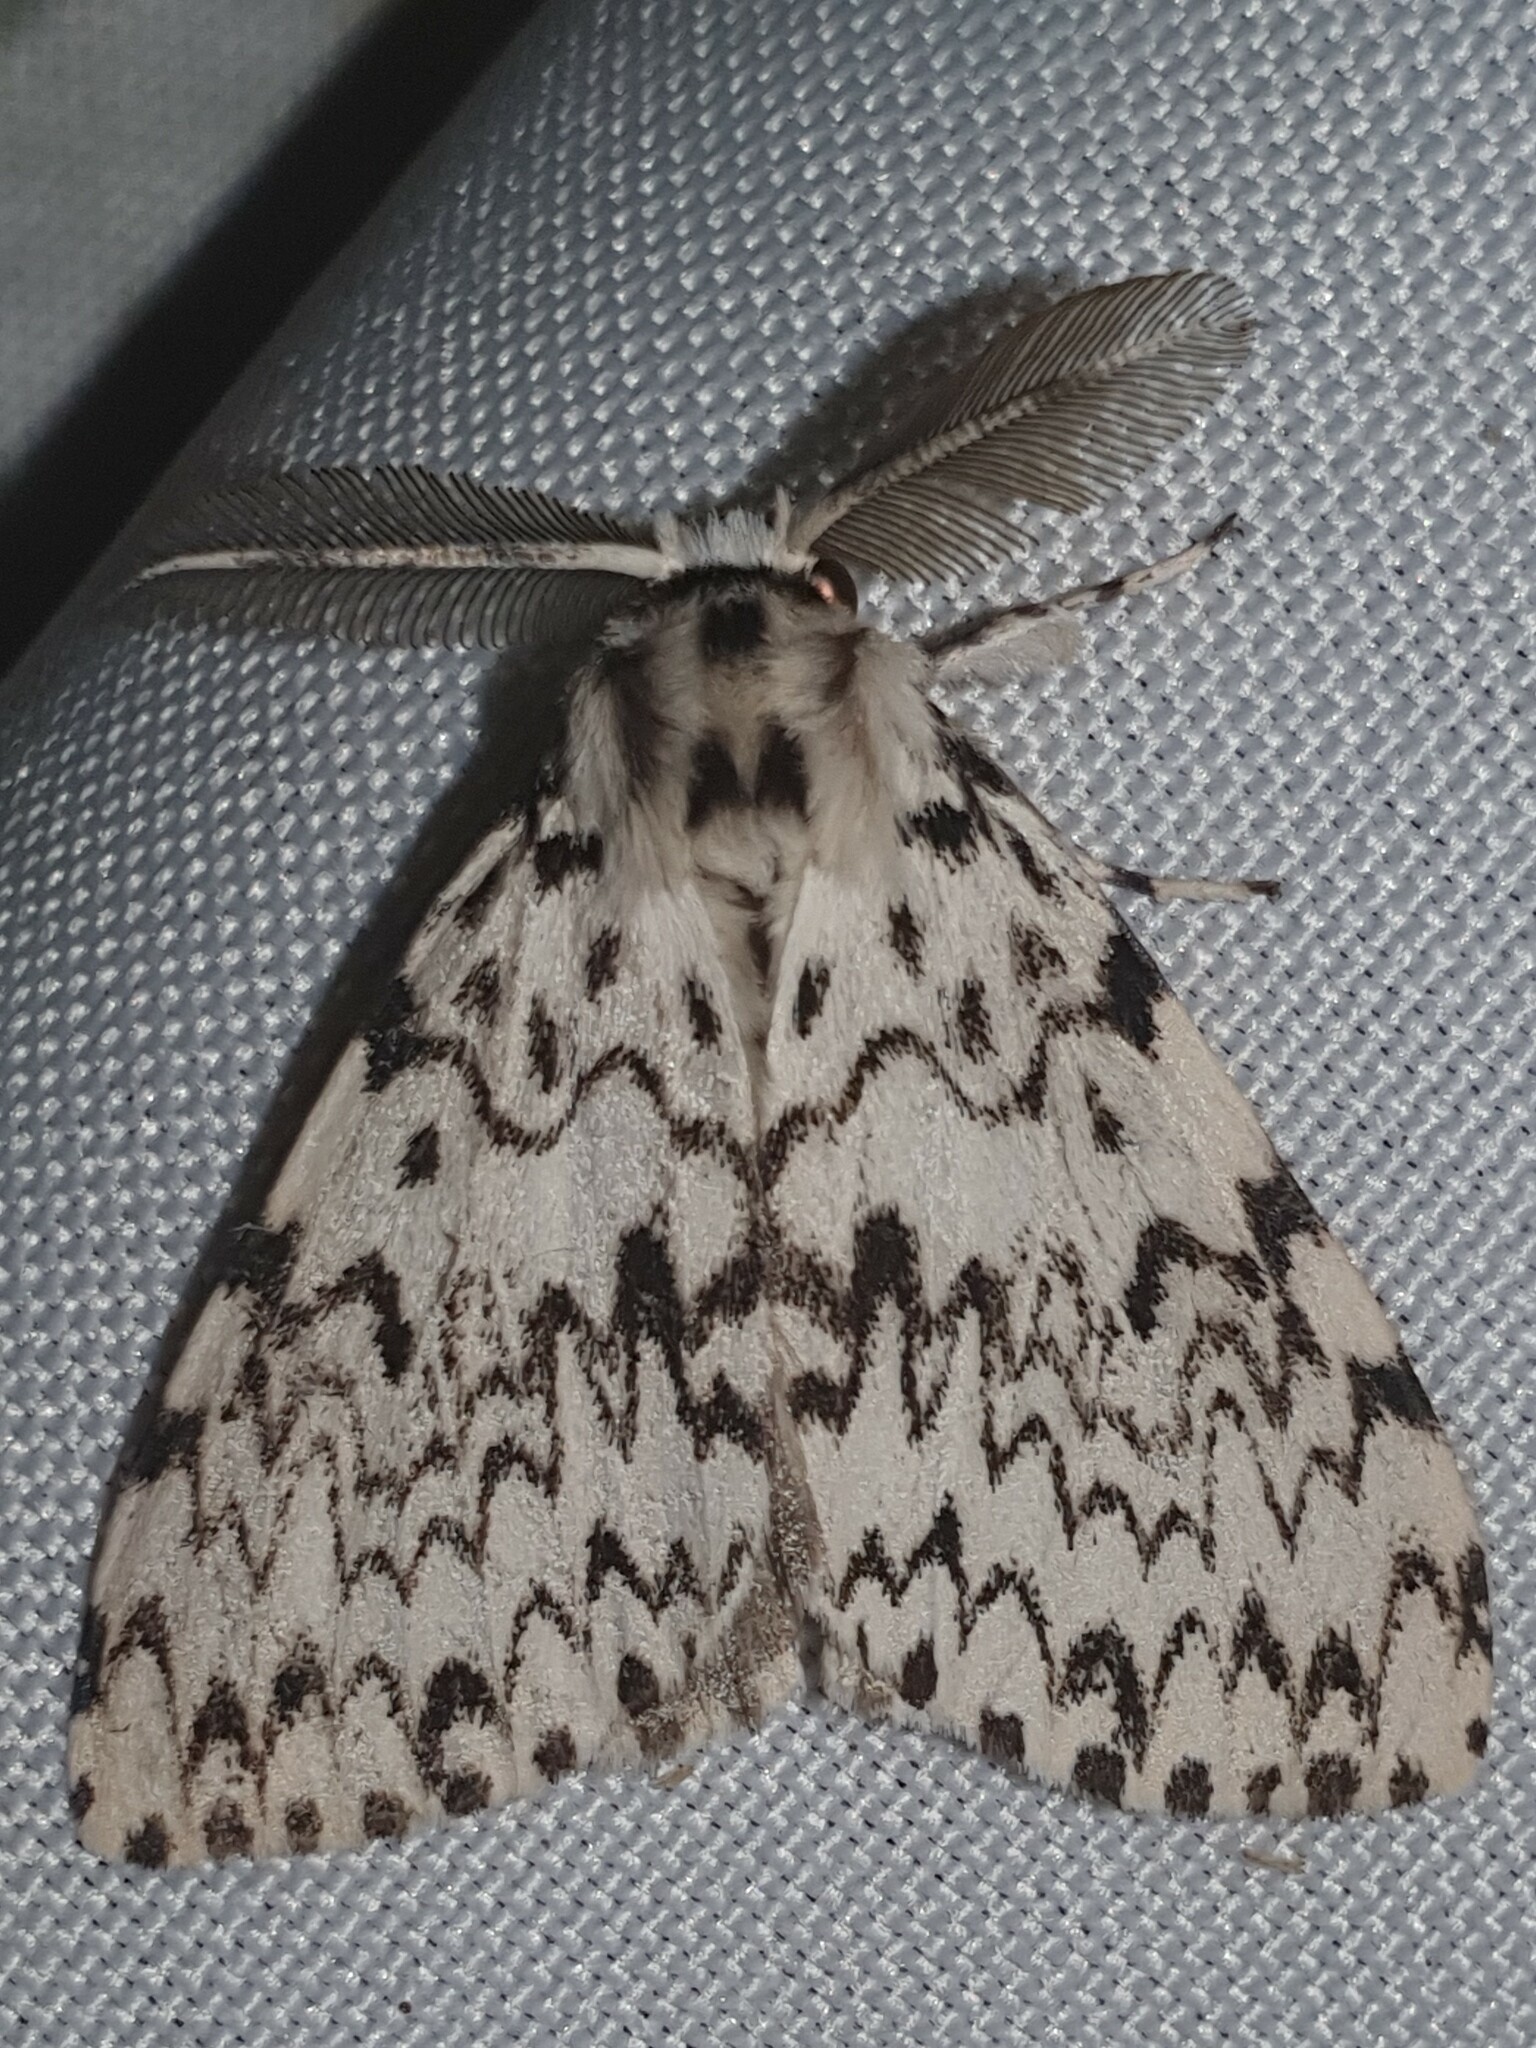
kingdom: Animalia
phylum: Arthropoda
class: Insecta
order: Lepidoptera
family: Erebidae
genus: Lymantria
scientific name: Lymantria monacha
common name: Black arches
